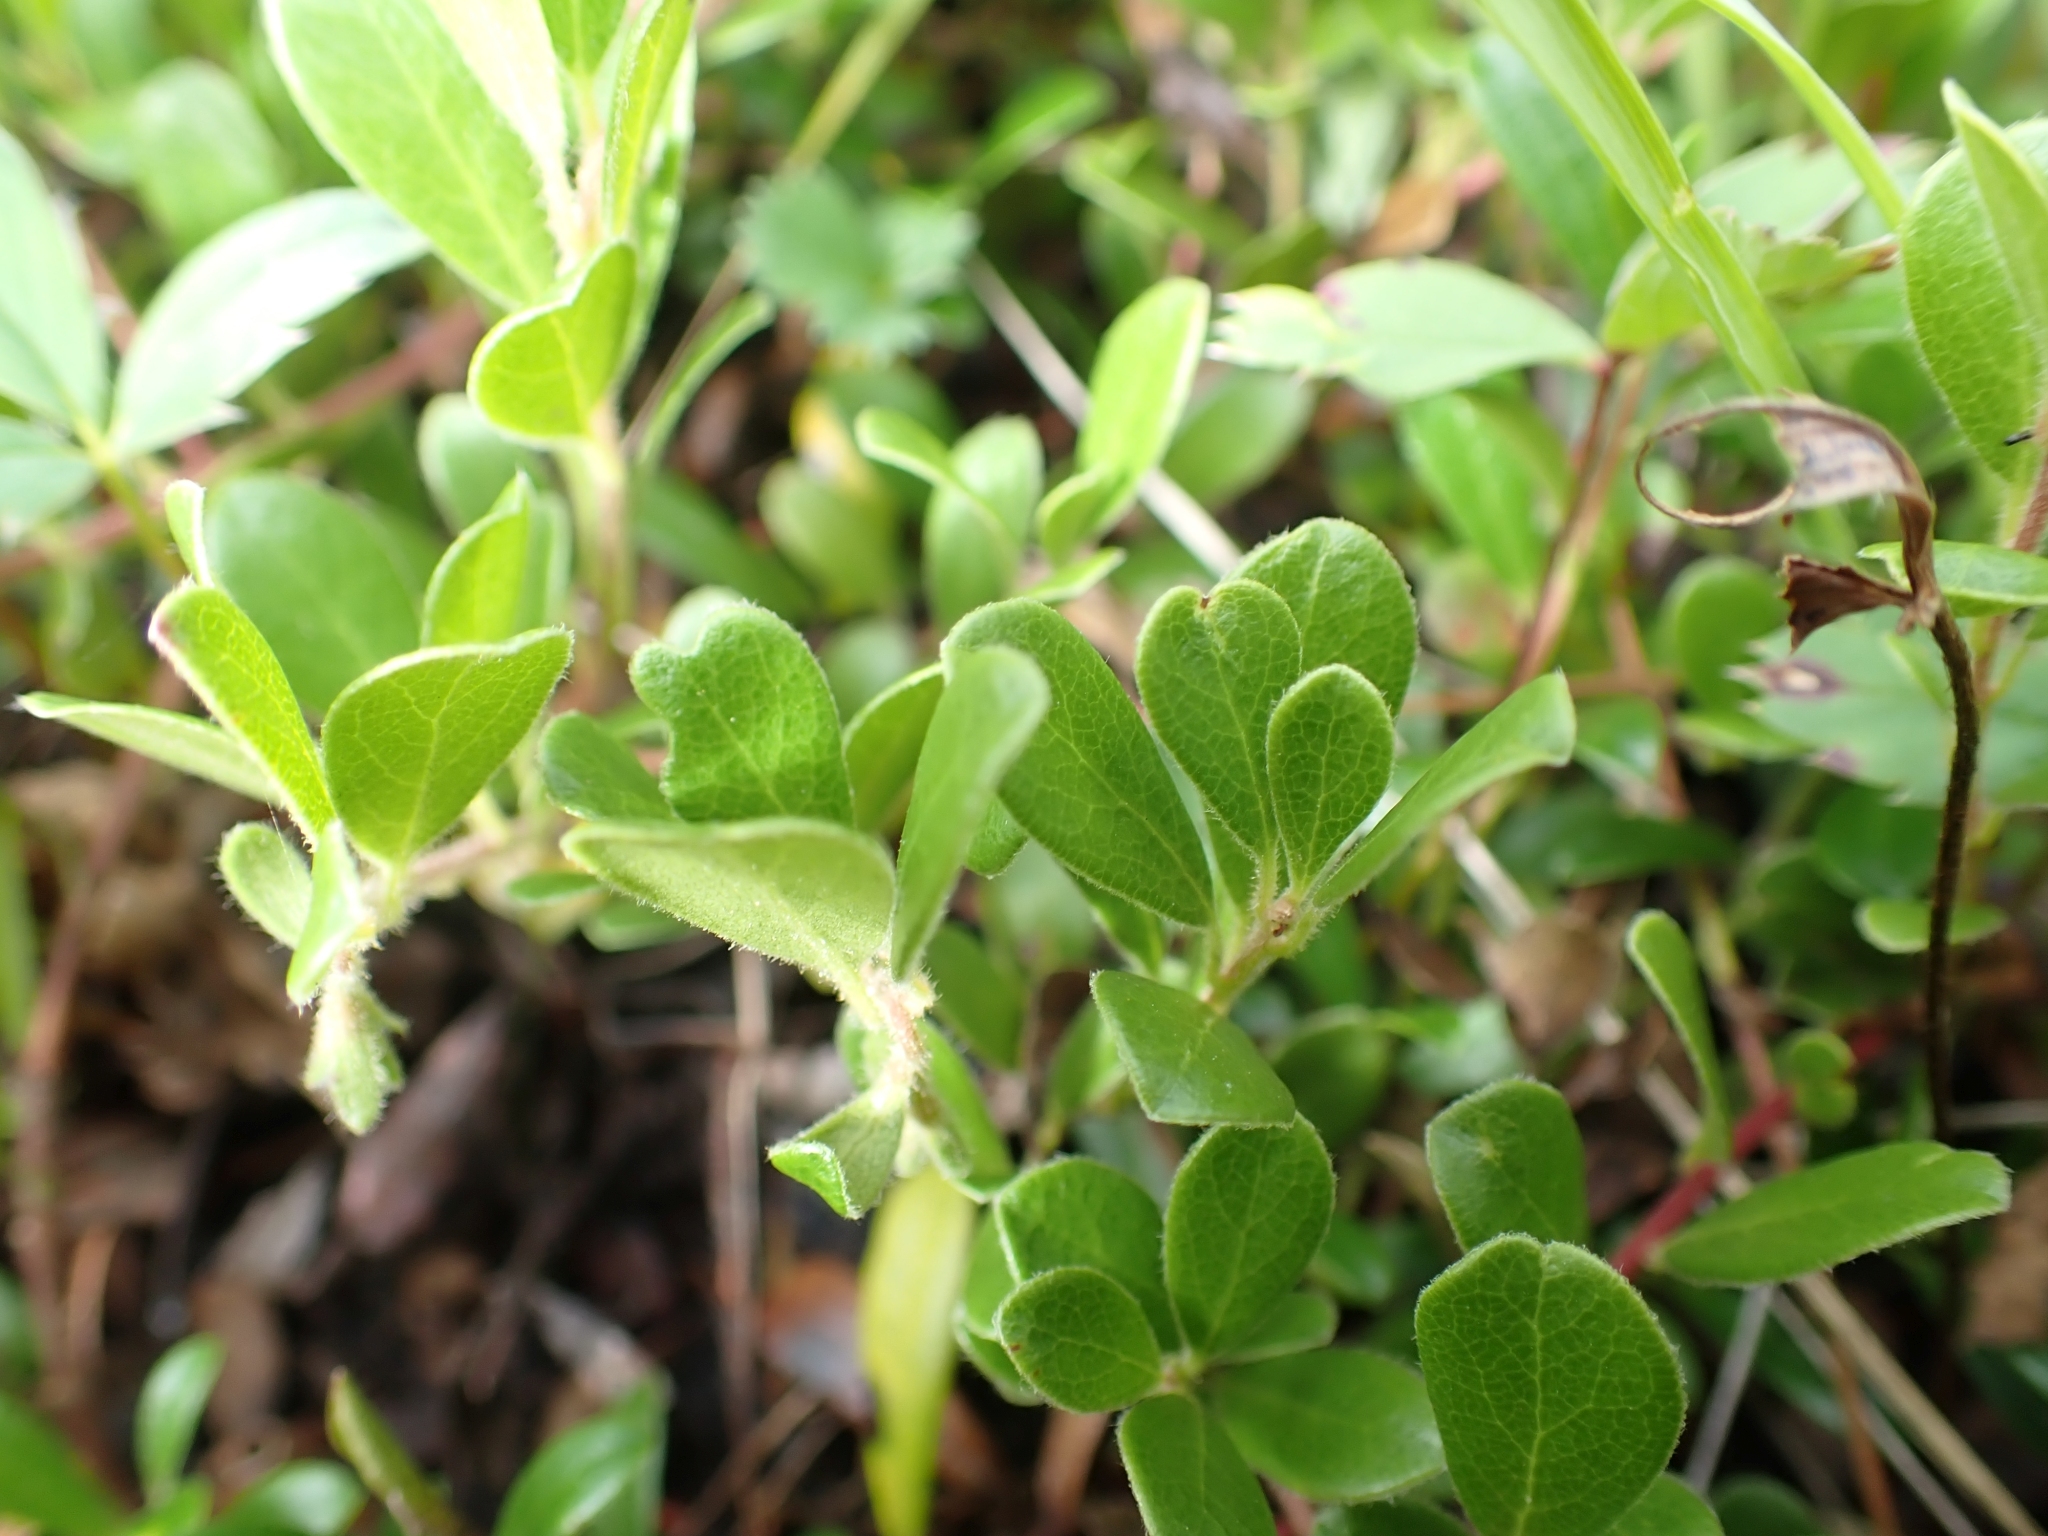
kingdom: Plantae
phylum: Tracheophyta
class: Magnoliopsida
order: Ericales
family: Ericaceae
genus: Arctostaphylos
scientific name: Arctostaphylos uva-ursi
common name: Bearberry
